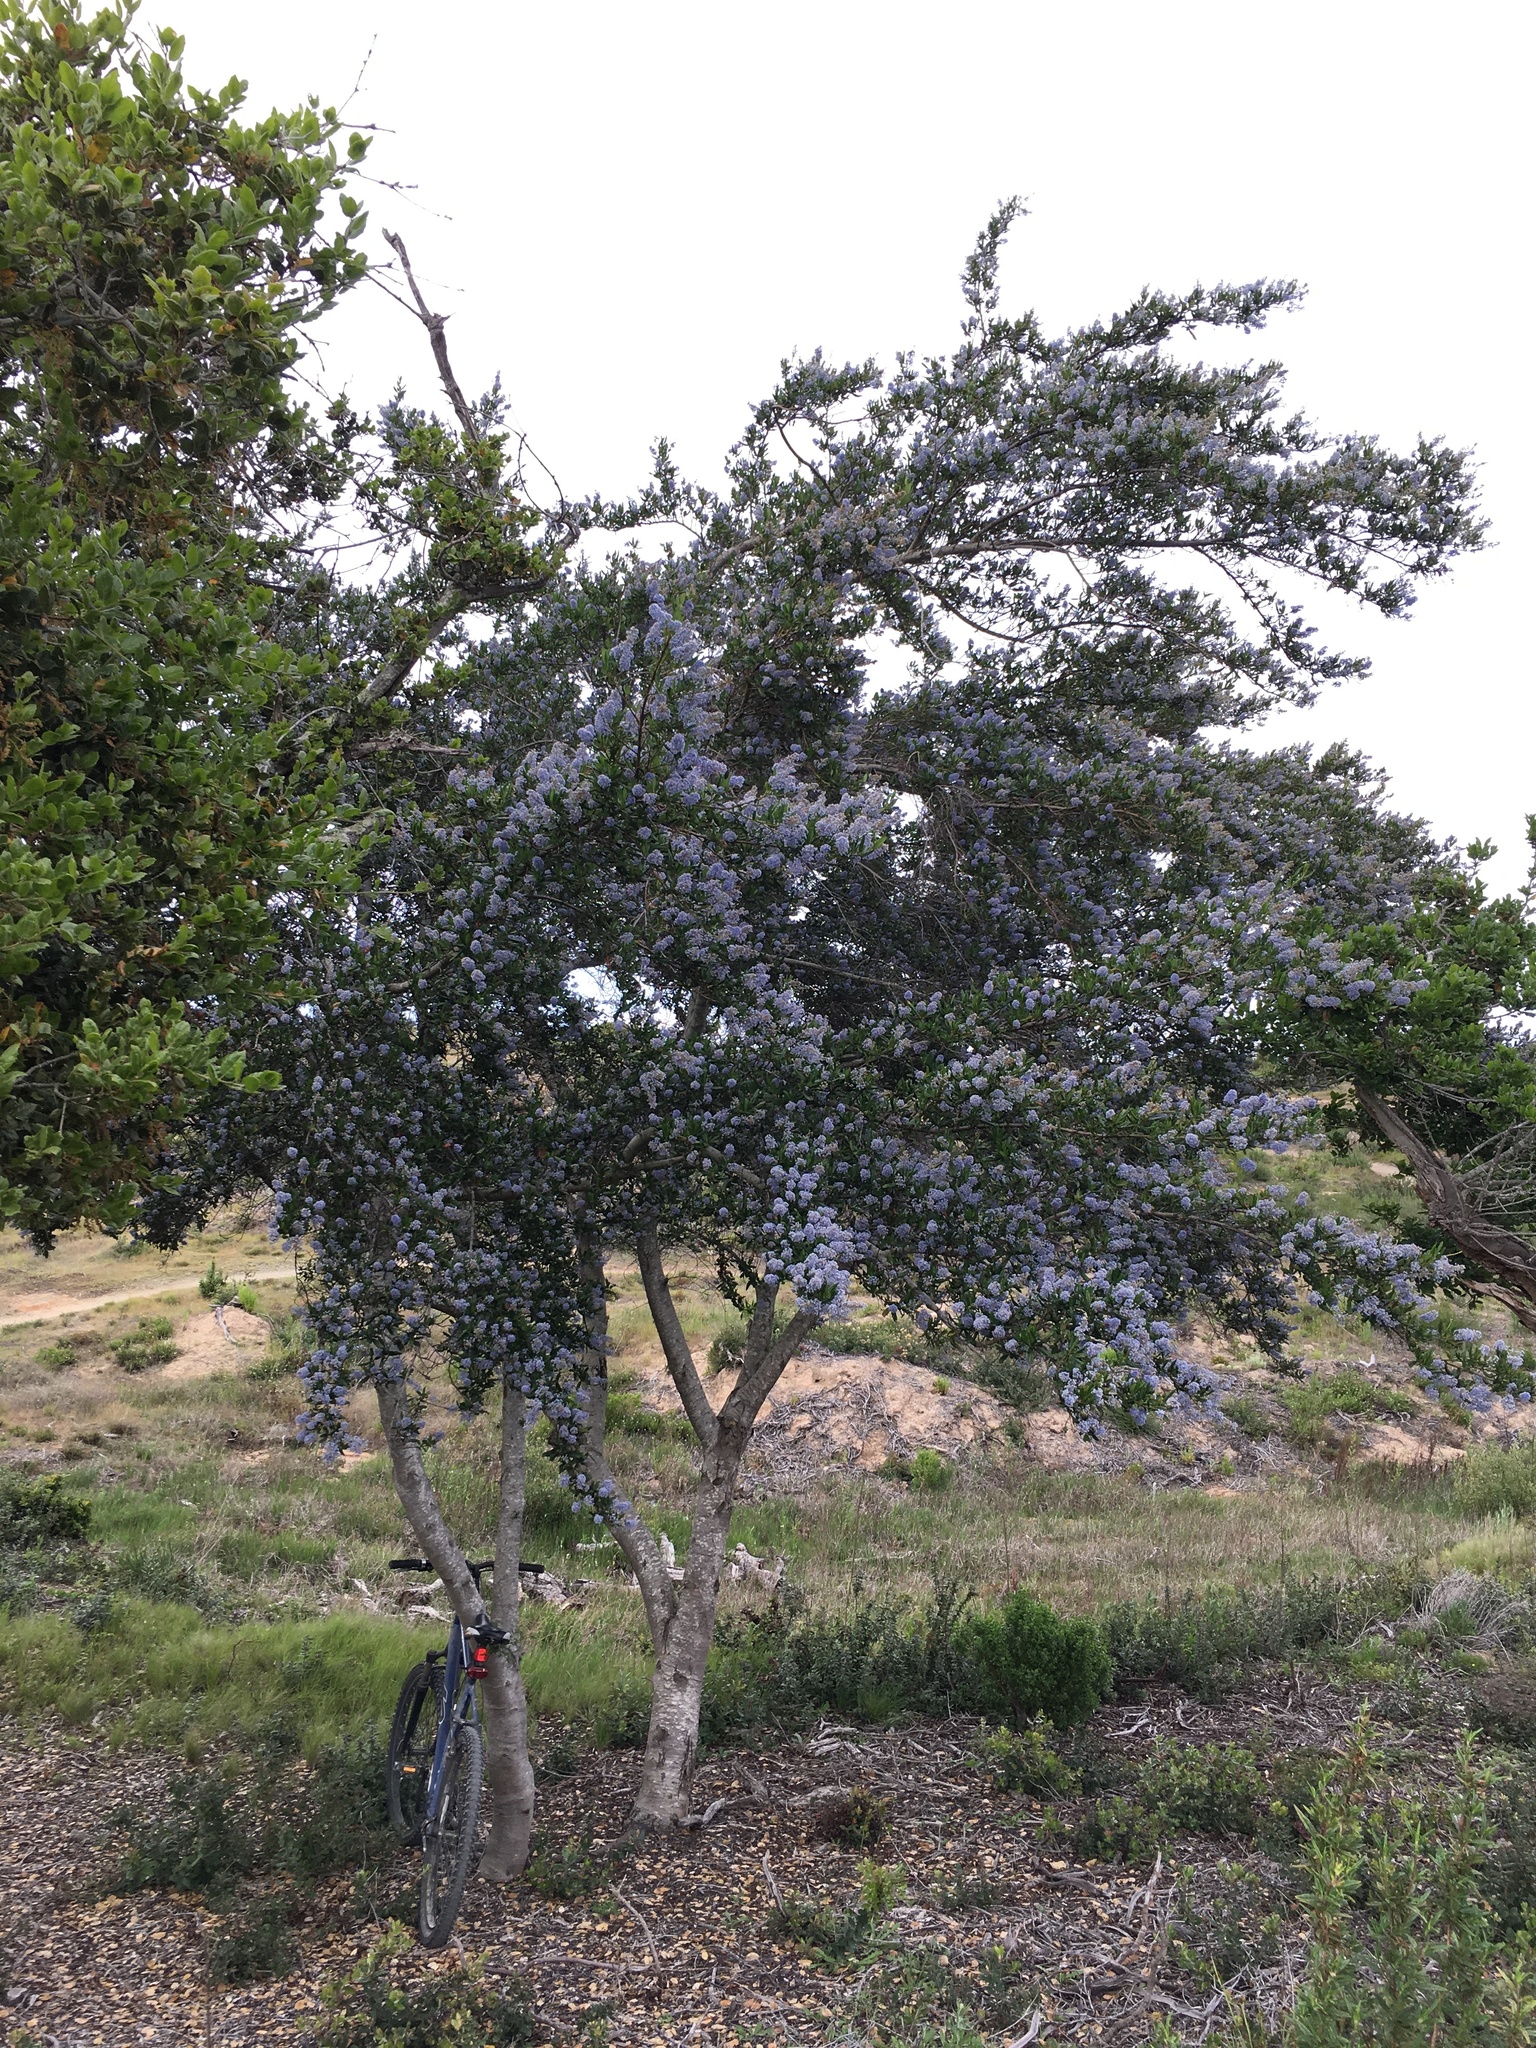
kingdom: Plantae
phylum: Tracheophyta
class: Magnoliopsida
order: Rosales
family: Rhamnaceae
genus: Ceanothus
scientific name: Ceanothus griseus
